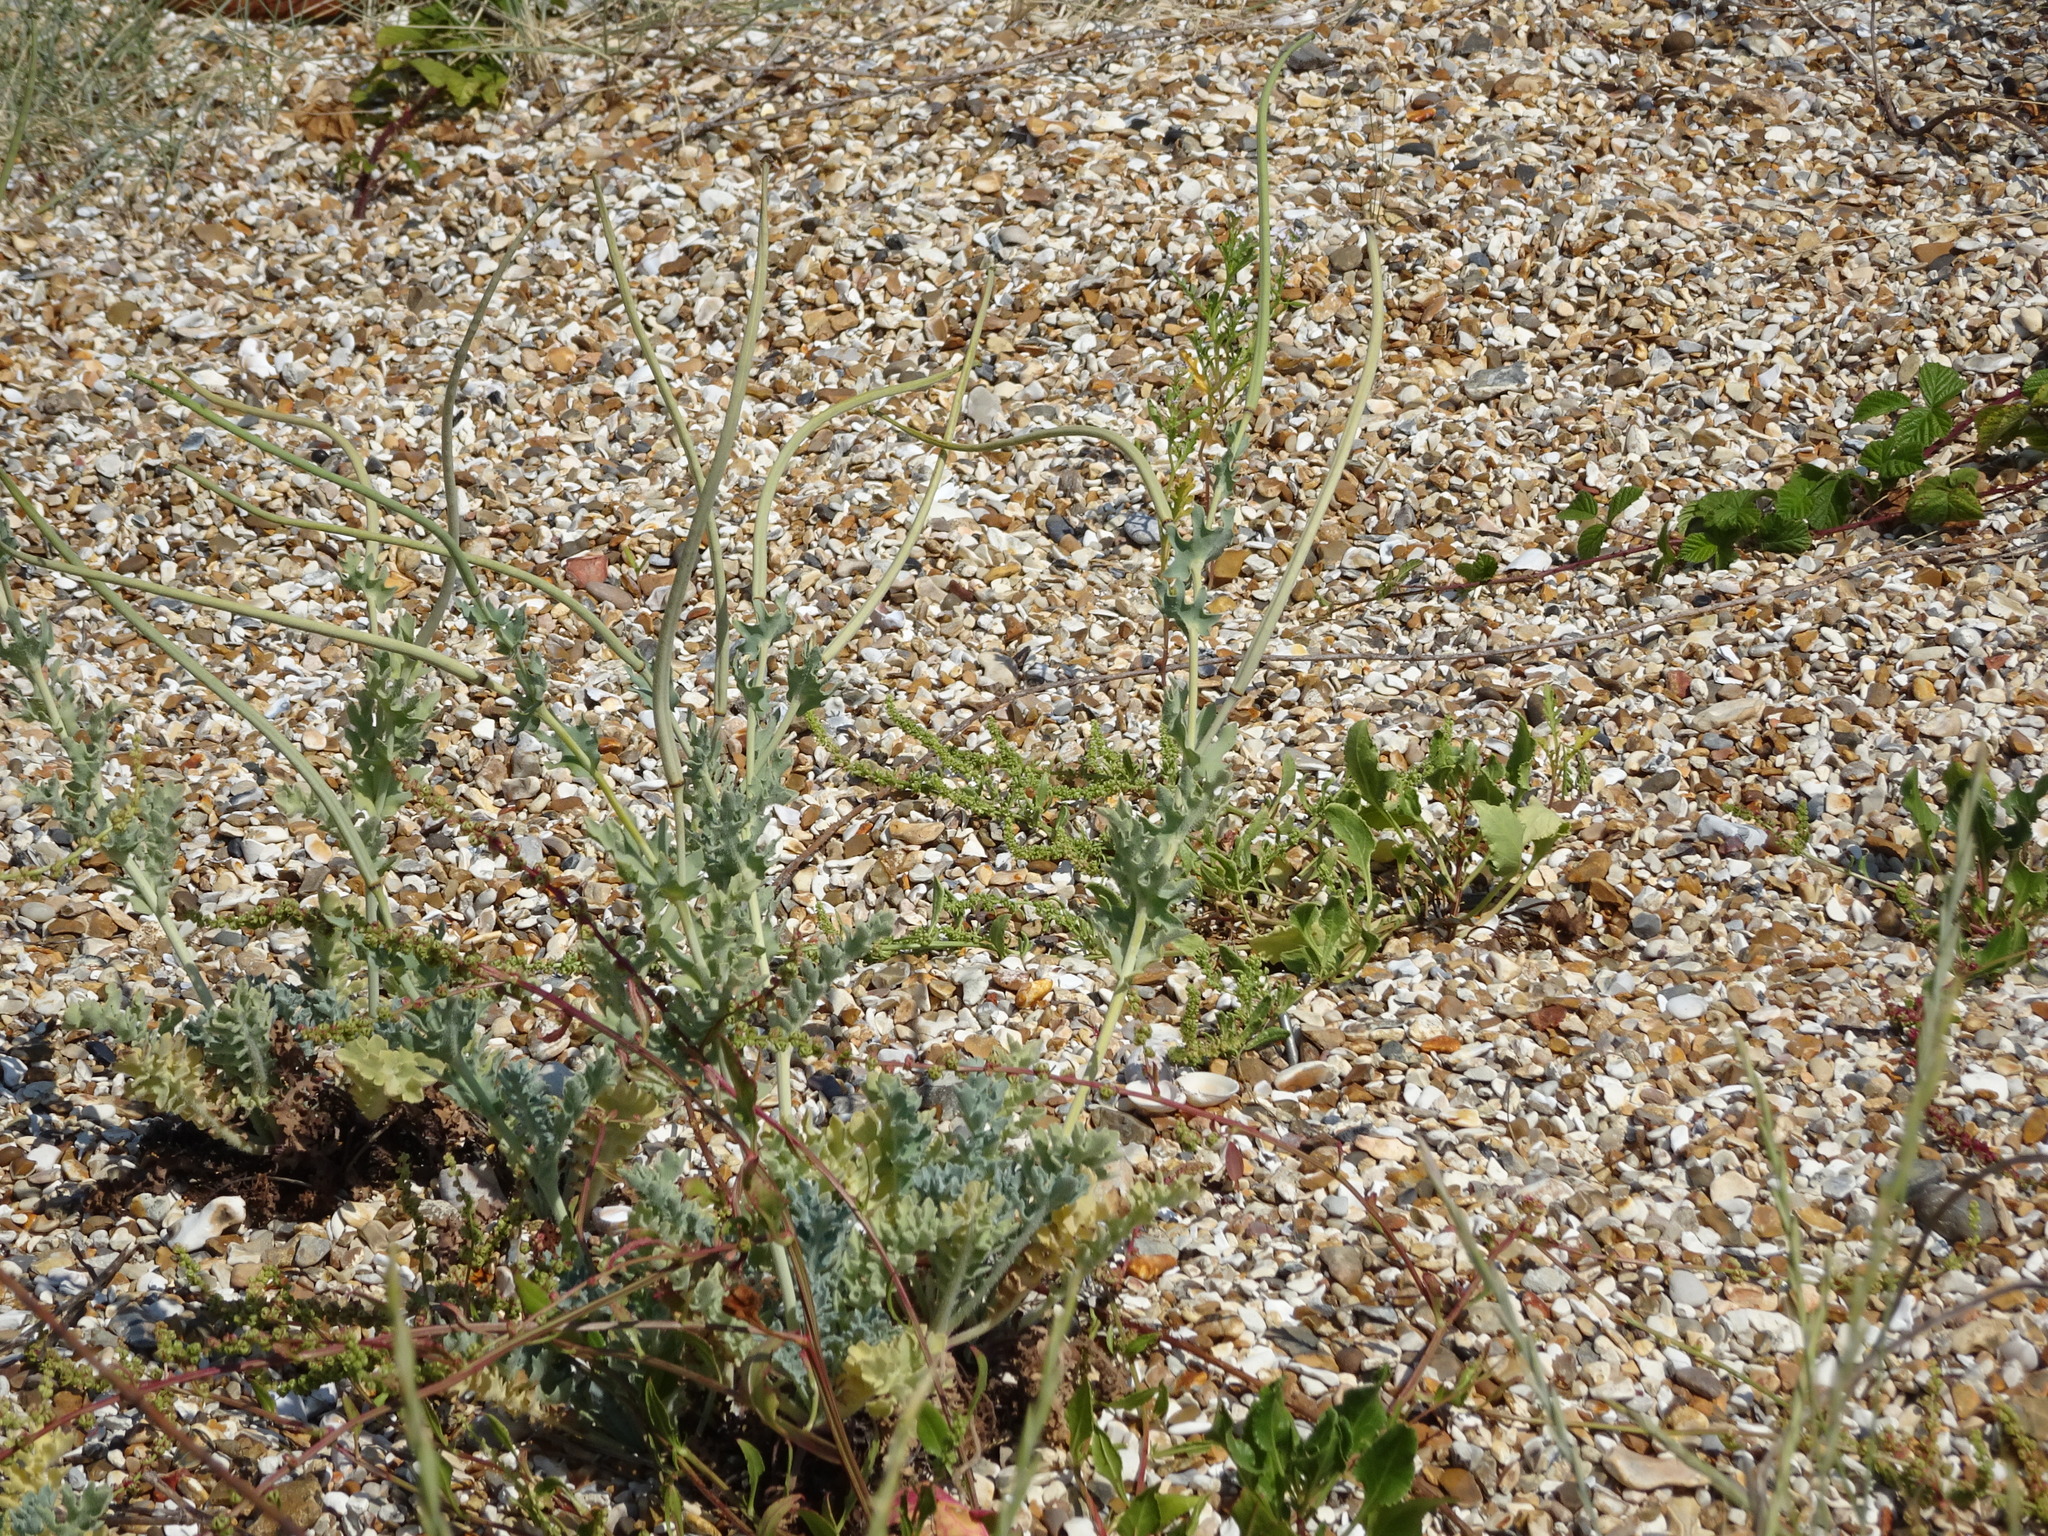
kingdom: Plantae
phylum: Tracheophyta
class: Magnoliopsida
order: Ranunculales
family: Papaveraceae
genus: Glaucium
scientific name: Glaucium flavum
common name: Yellow horned-poppy
